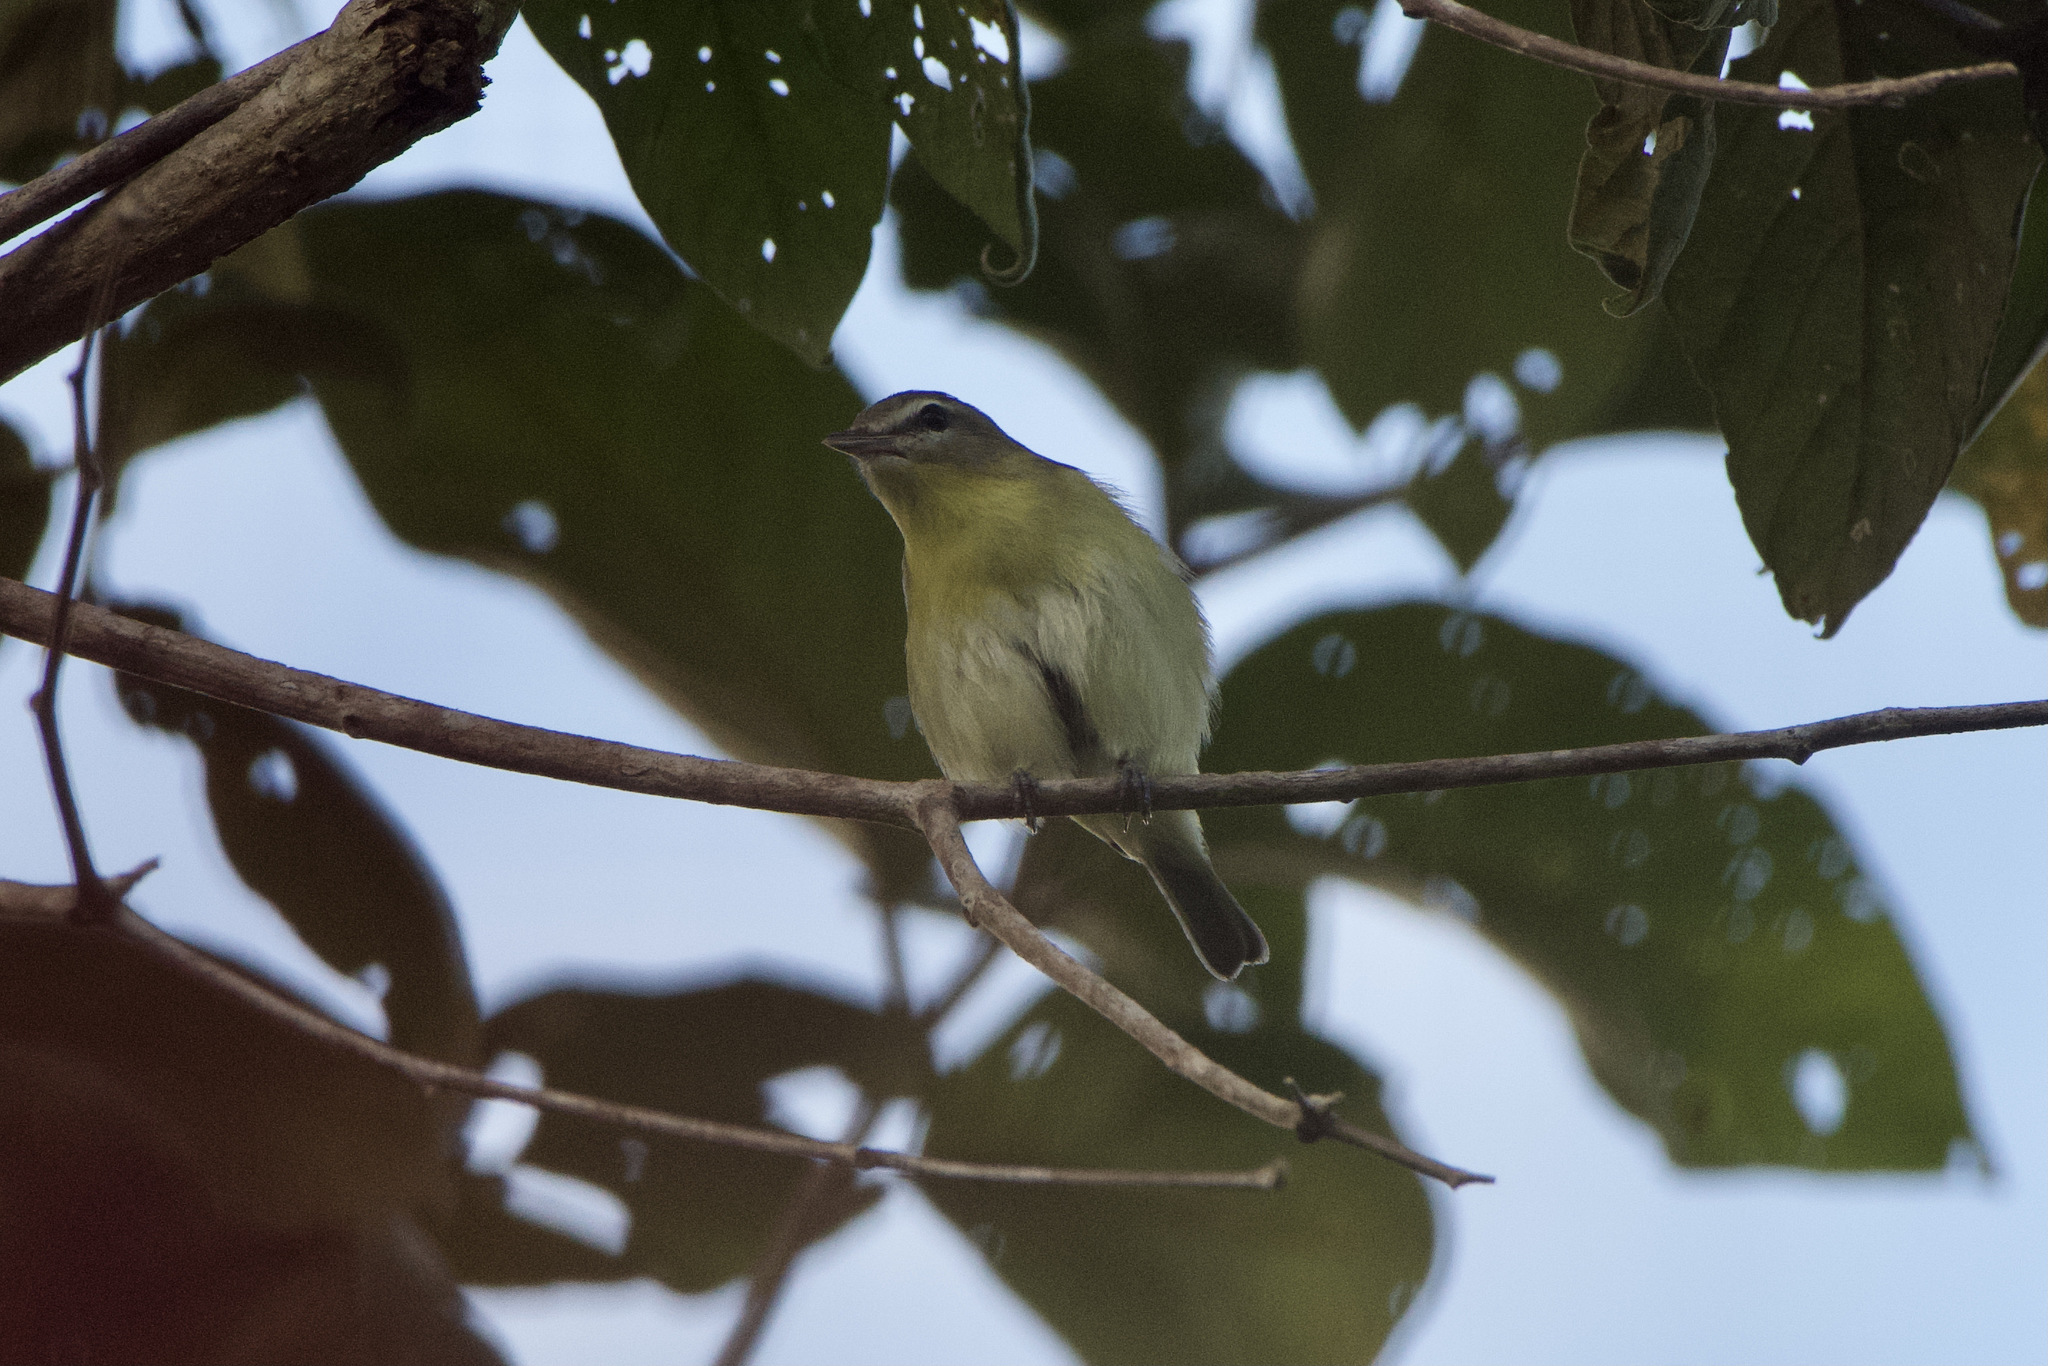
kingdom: Animalia
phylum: Chordata
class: Aves
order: Passeriformes
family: Vireonidae
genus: Vireo
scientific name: Vireo philadelphicus
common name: Philadelphia vireo
